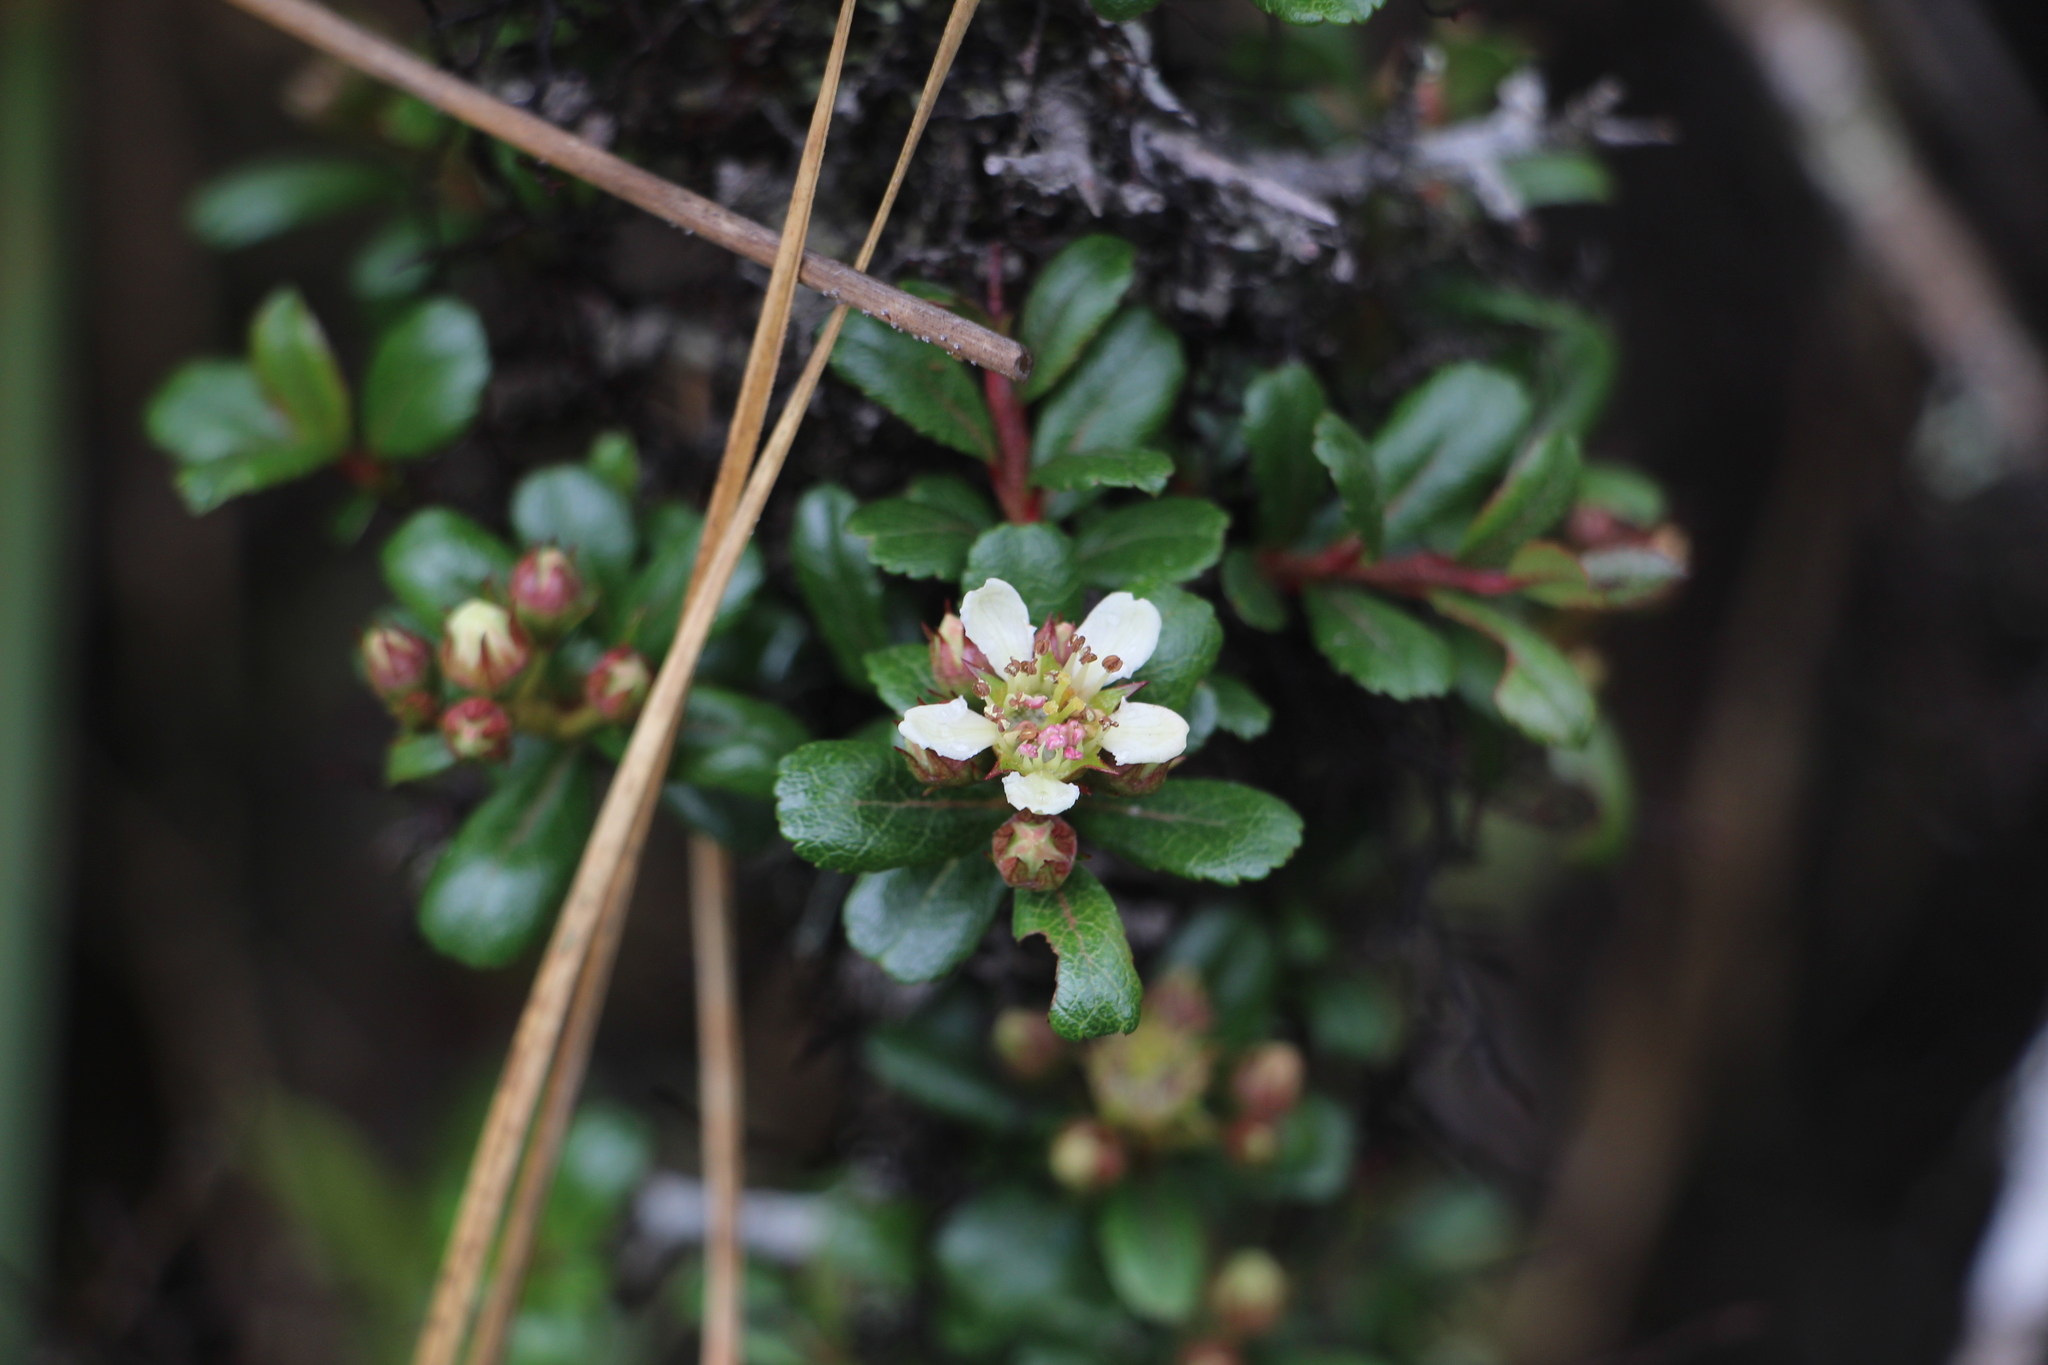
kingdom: Plantae
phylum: Tracheophyta
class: Magnoliopsida
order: Rosales
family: Rosaceae
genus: Hesperomeles
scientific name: Hesperomeles obtusifolia
